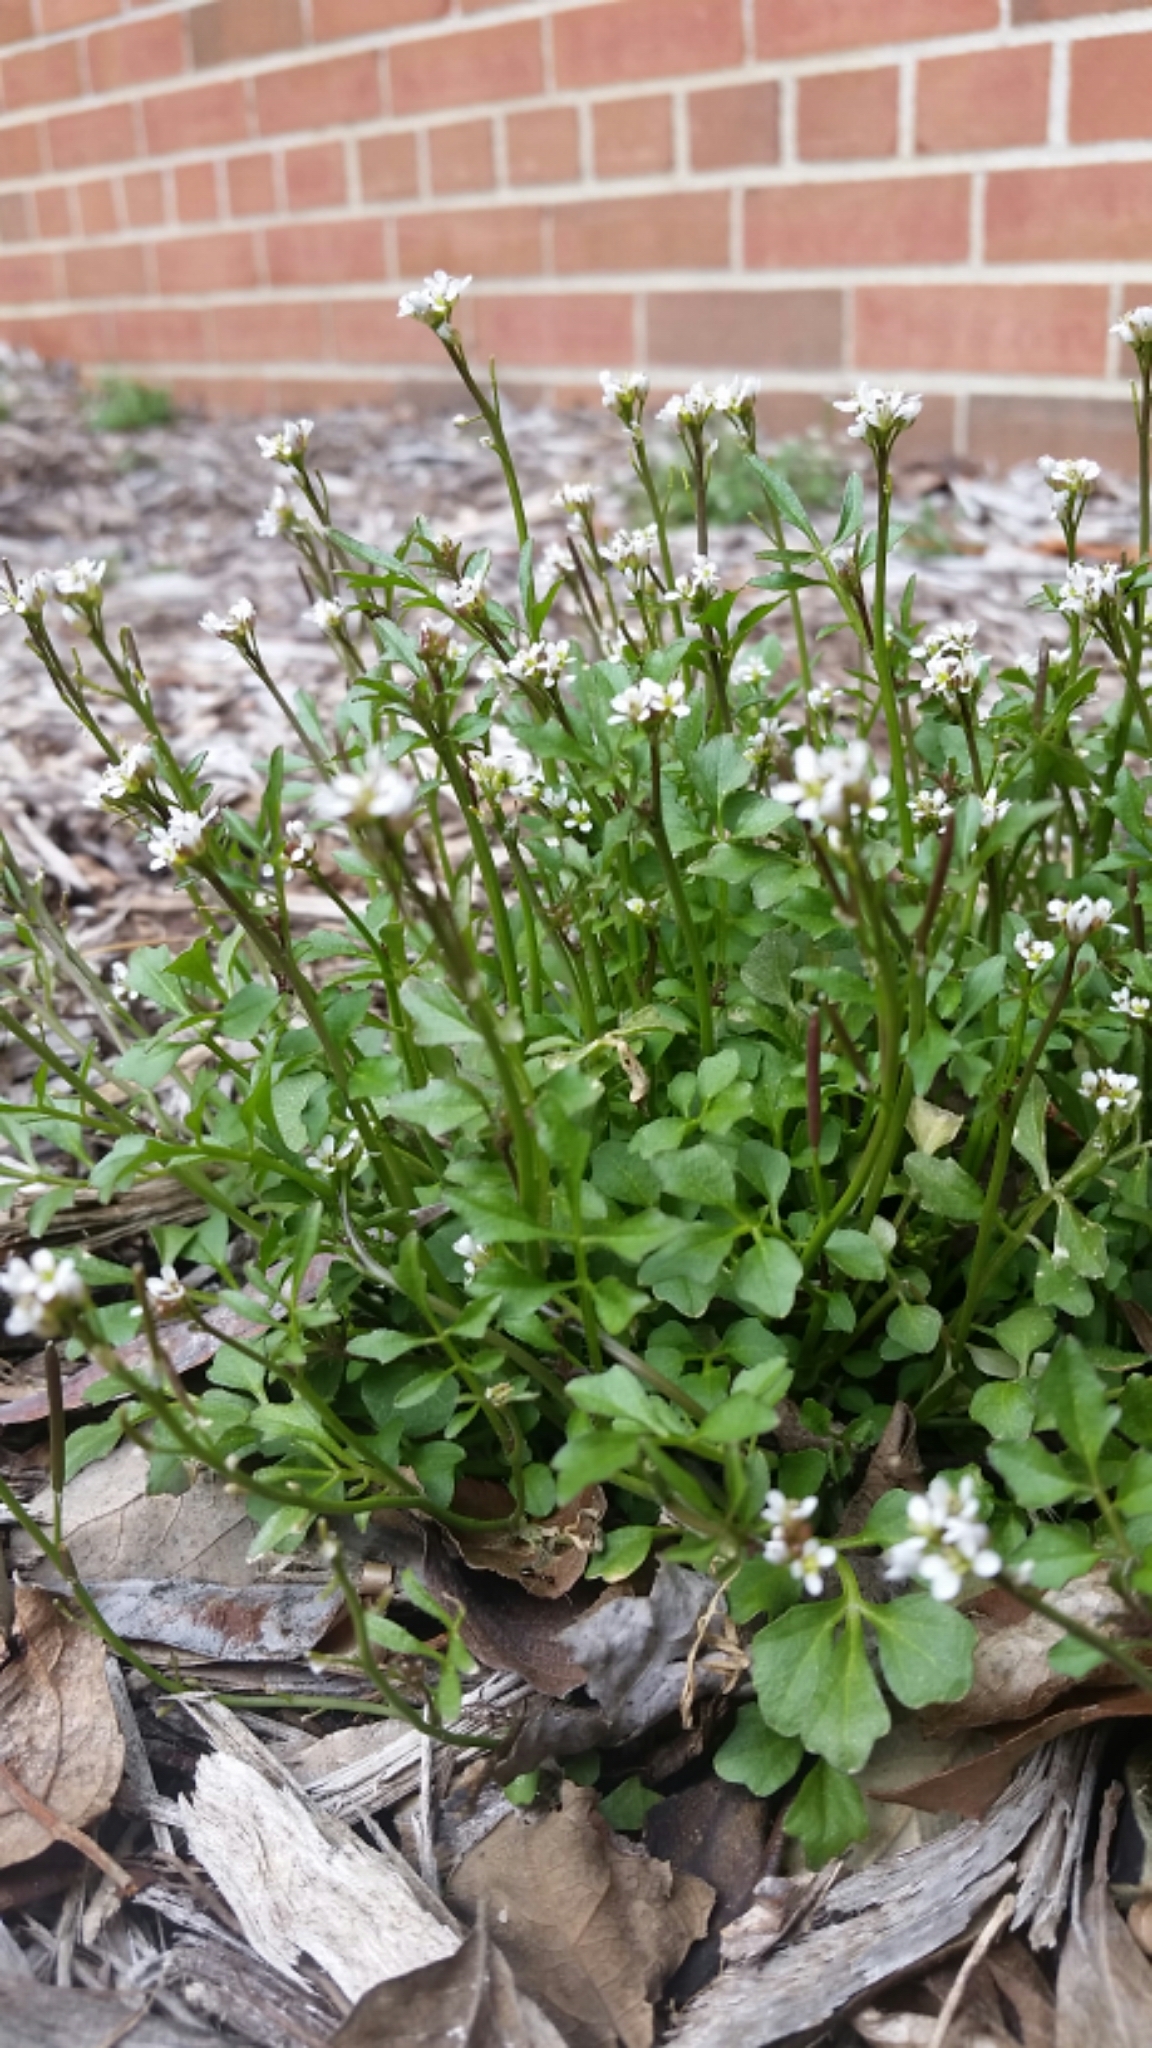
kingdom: Plantae
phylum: Tracheophyta
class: Magnoliopsida
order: Brassicales
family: Brassicaceae
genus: Cardamine
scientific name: Cardamine hirsuta
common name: Hairy bittercress
